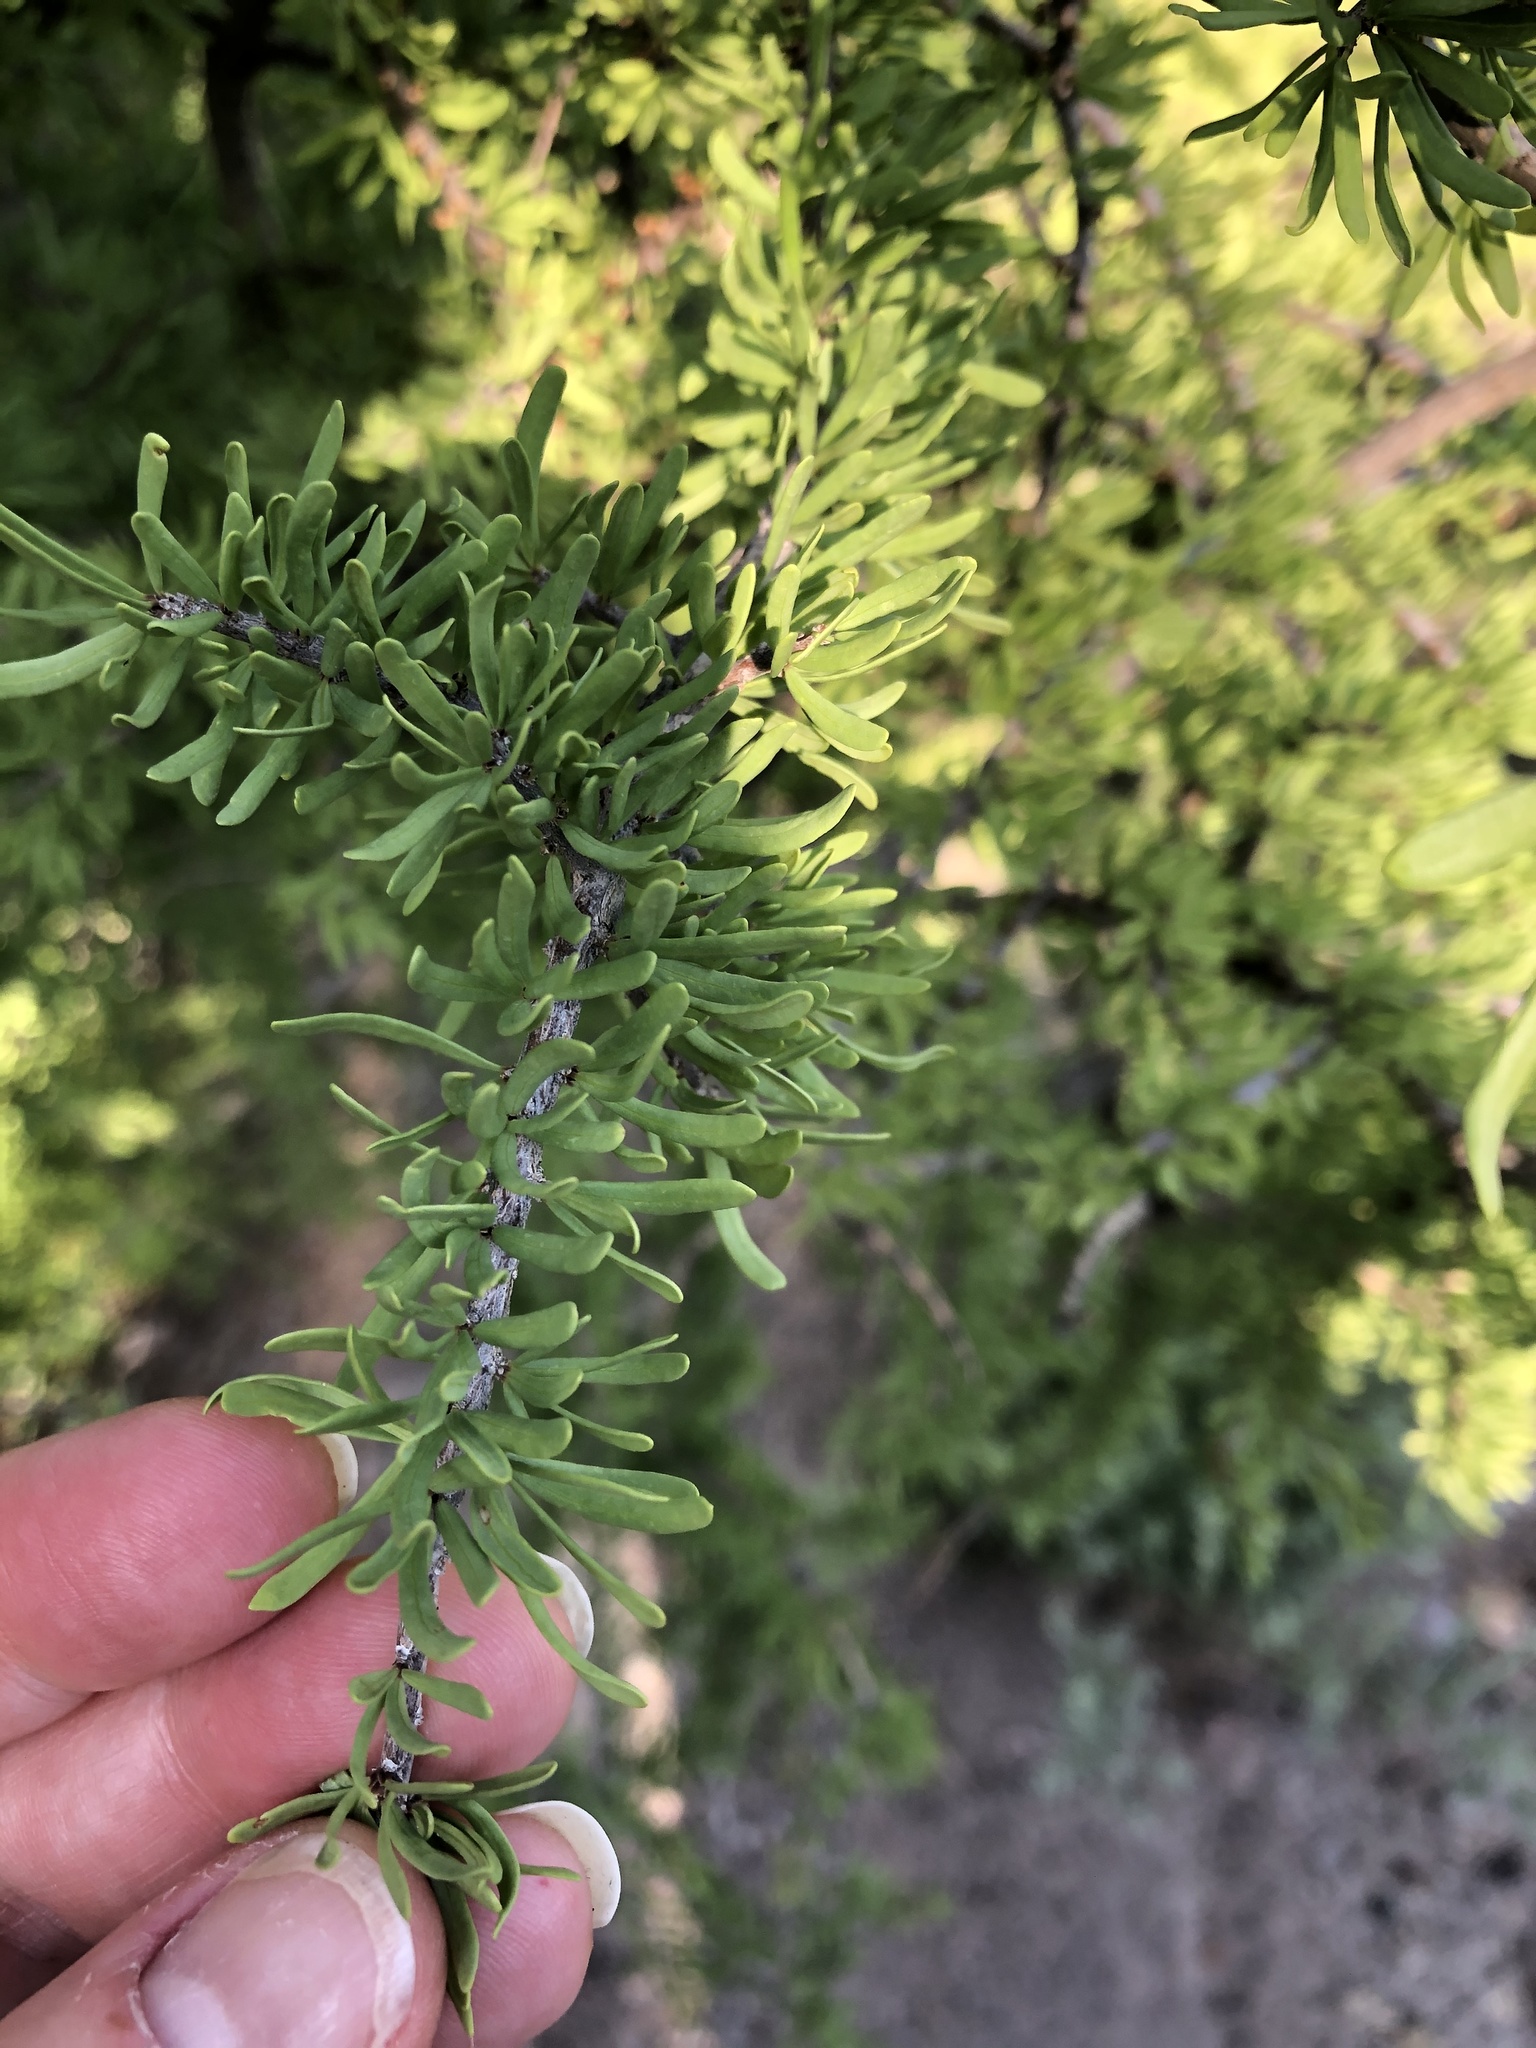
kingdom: Plantae
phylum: Tracheophyta
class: Magnoliopsida
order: Lamiales
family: Oleaceae
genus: Forestiera
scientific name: Forestiera angustifolia
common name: Elbowbush
